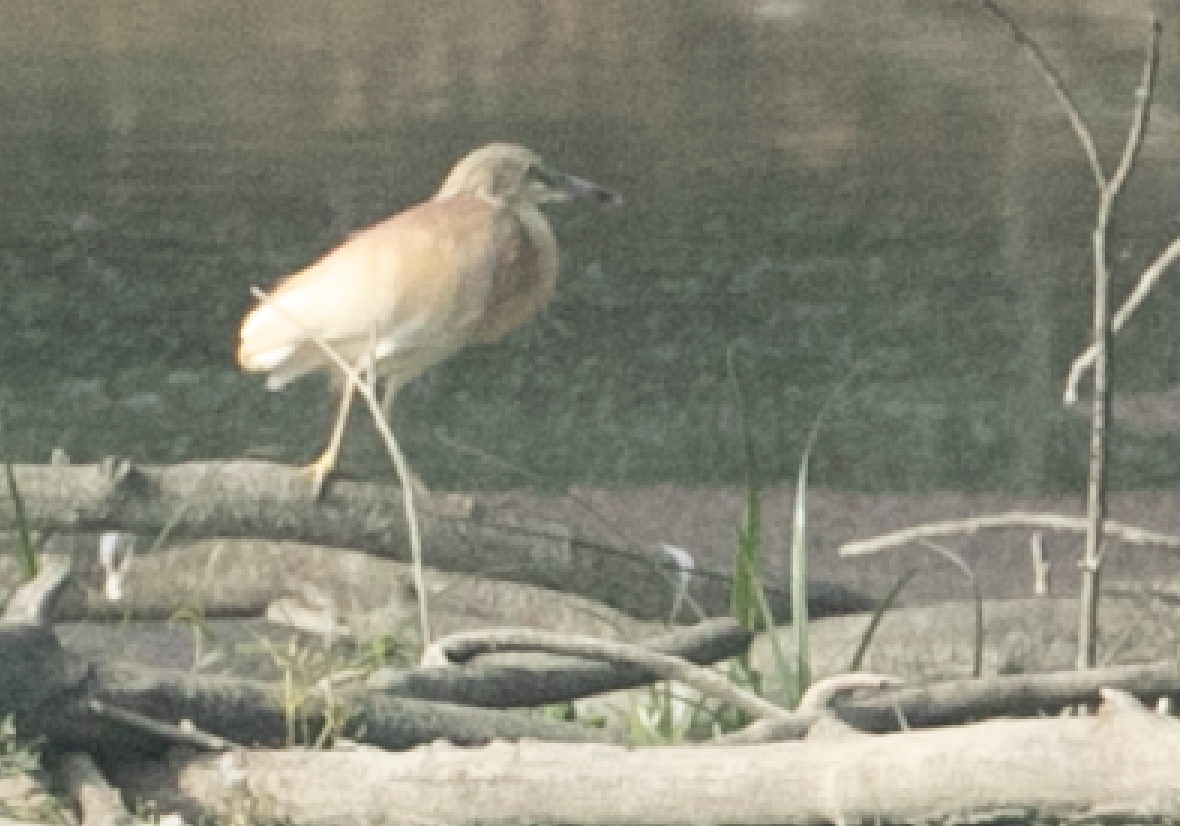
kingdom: Animalia
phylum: Chordata
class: Aves
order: Pelecaniformes
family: Ardeidae
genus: Ardeola
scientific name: Ardeola ralloides
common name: Squacco heron
